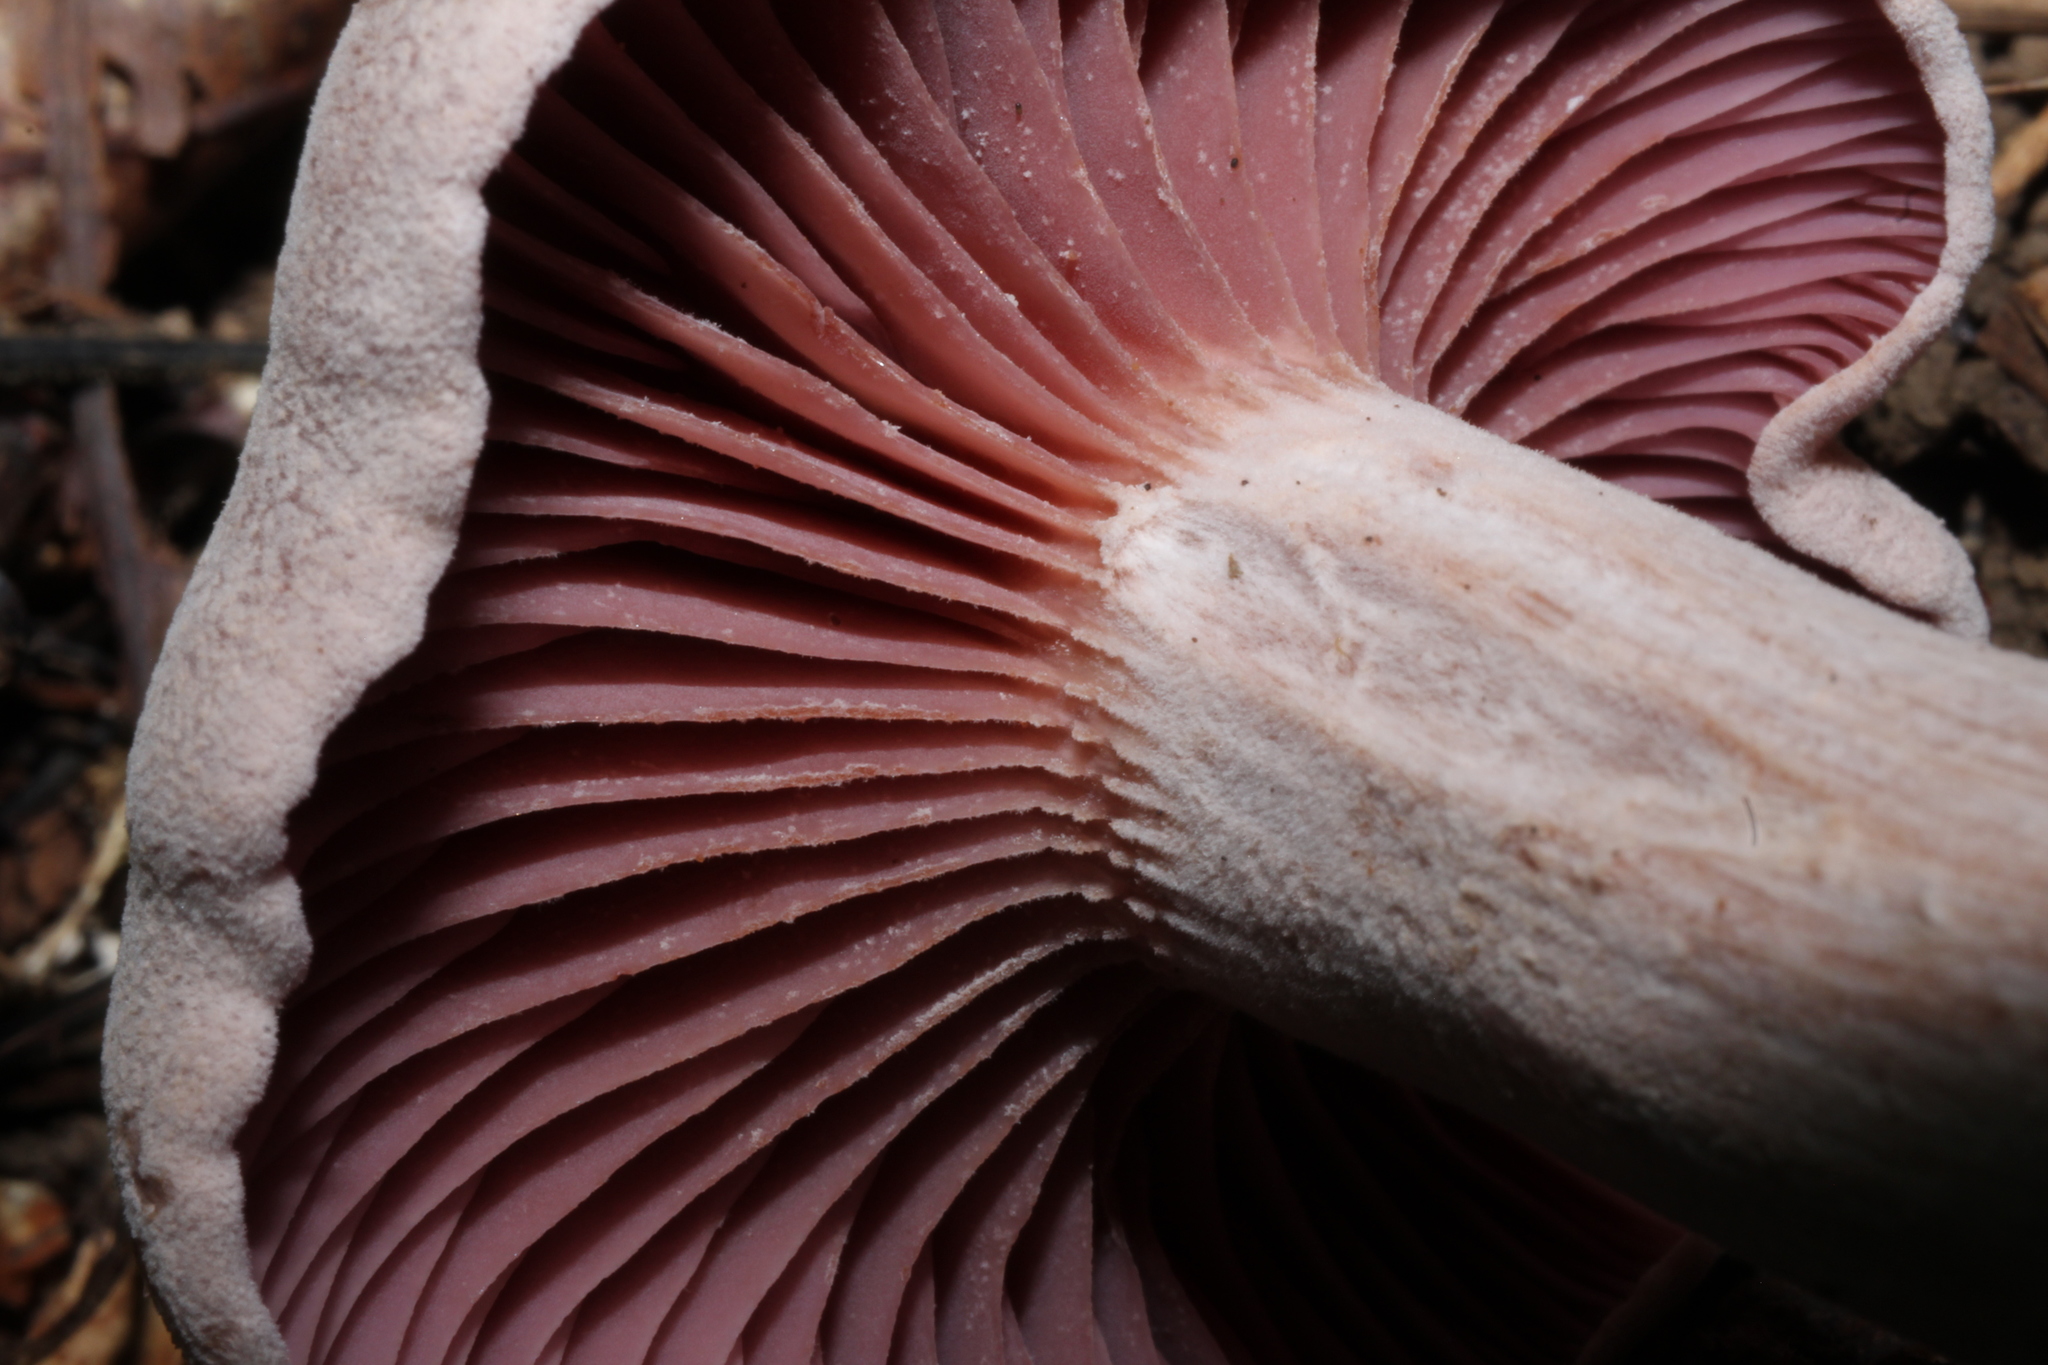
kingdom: Fungi
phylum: Basidiomycota
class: Agaricomycetes
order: Agaricales
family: Hydnangiaceae
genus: Laccaria
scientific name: Laccaria ochropurpurea
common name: Purple laccaria
